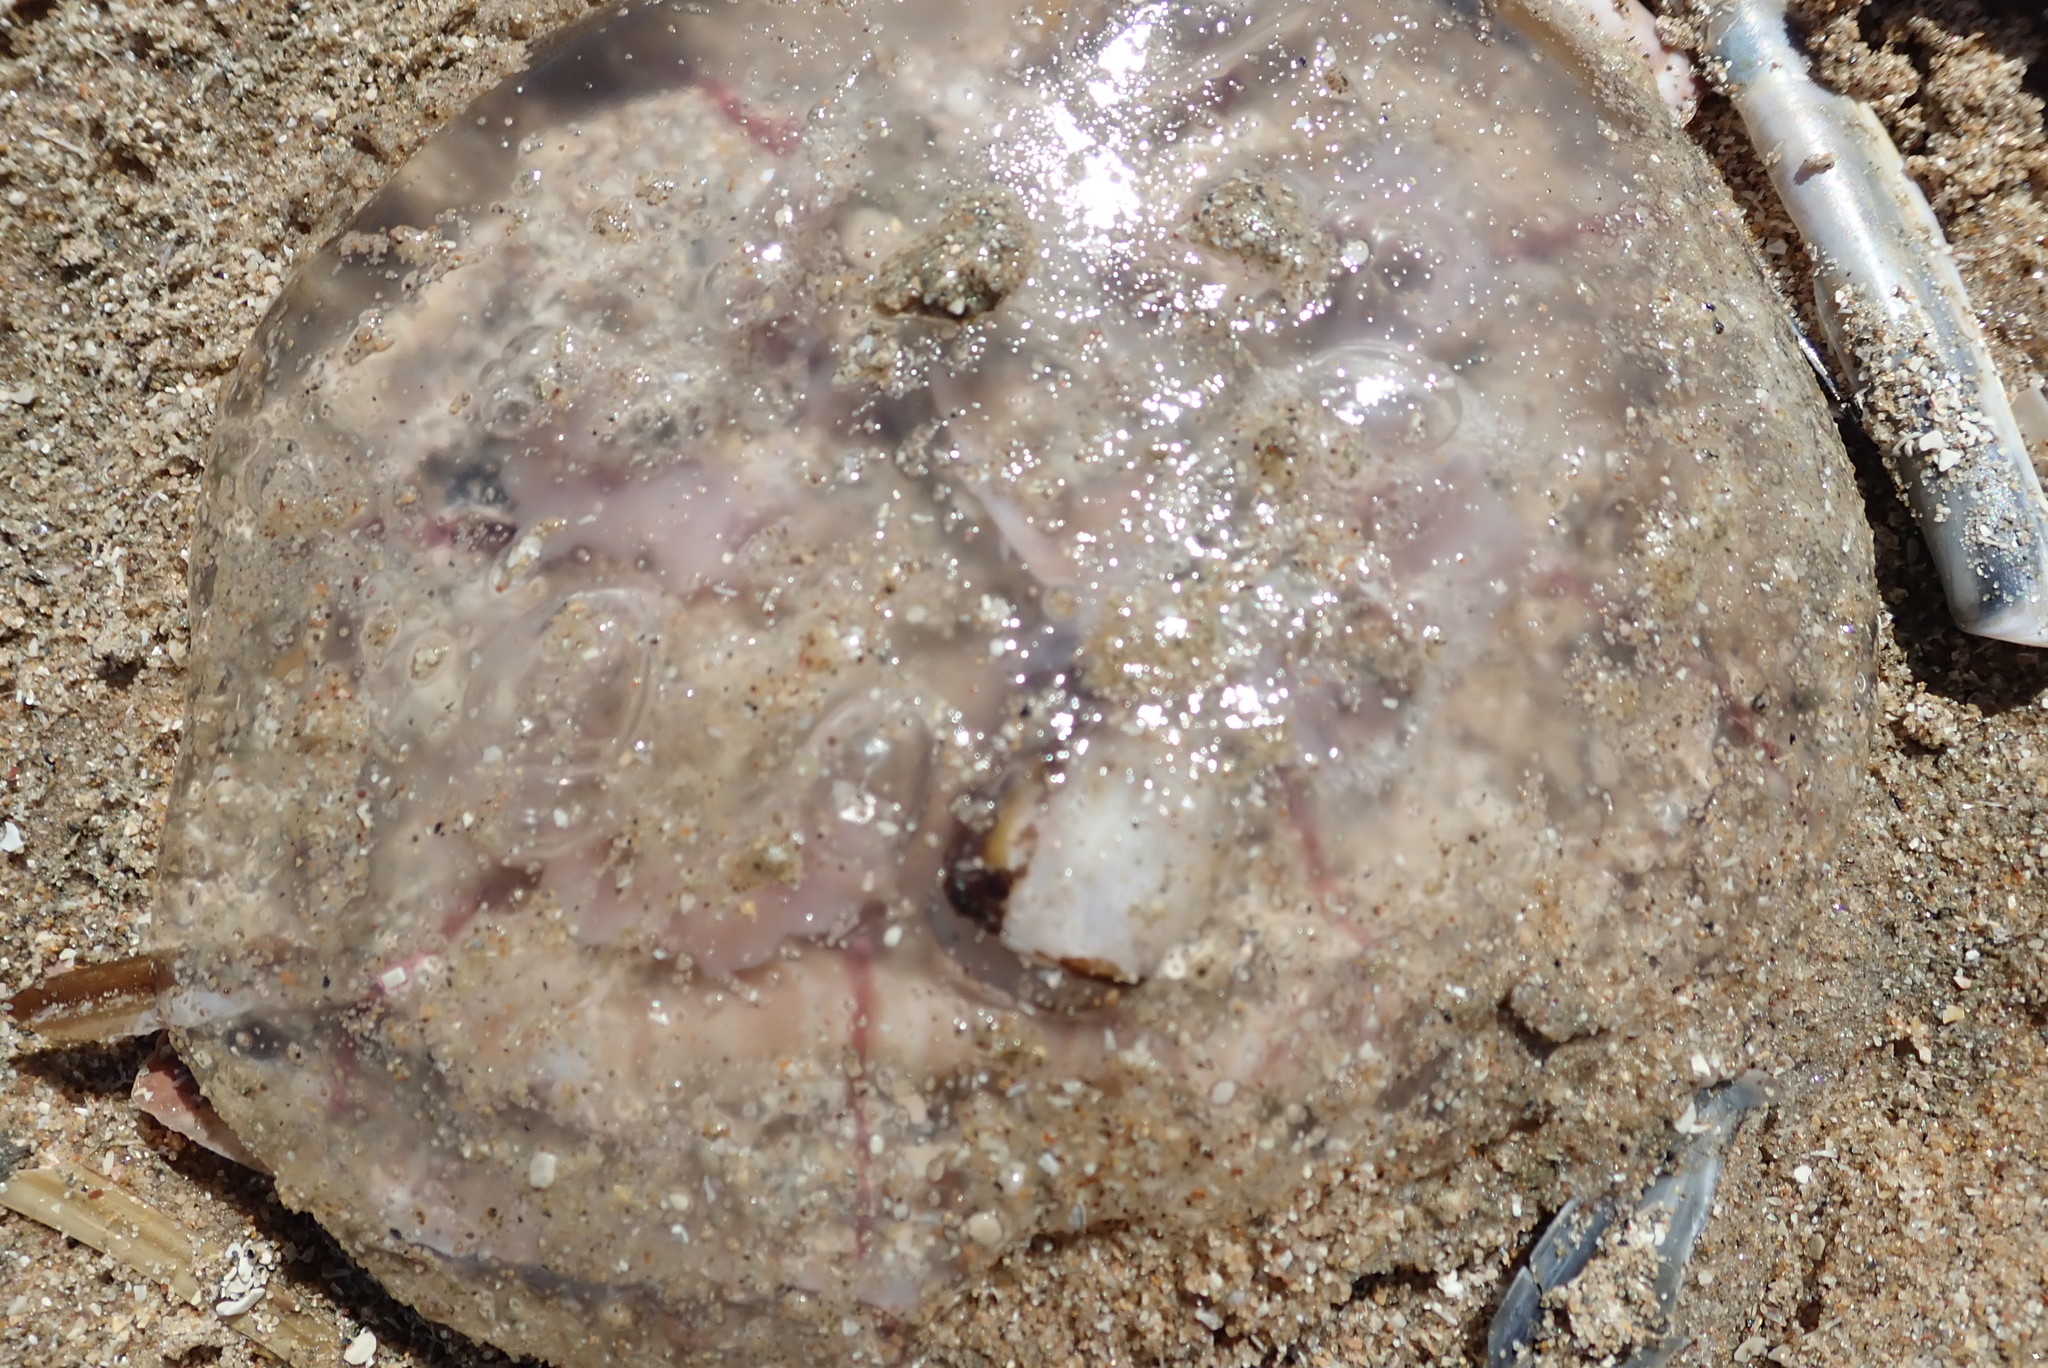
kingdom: Animalia
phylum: Cnidaria
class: Scyphozoa
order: Semaeostomeae
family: Ulmaridae
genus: Aurelia
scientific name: Aurelia aurita
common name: Moon jellyfish
